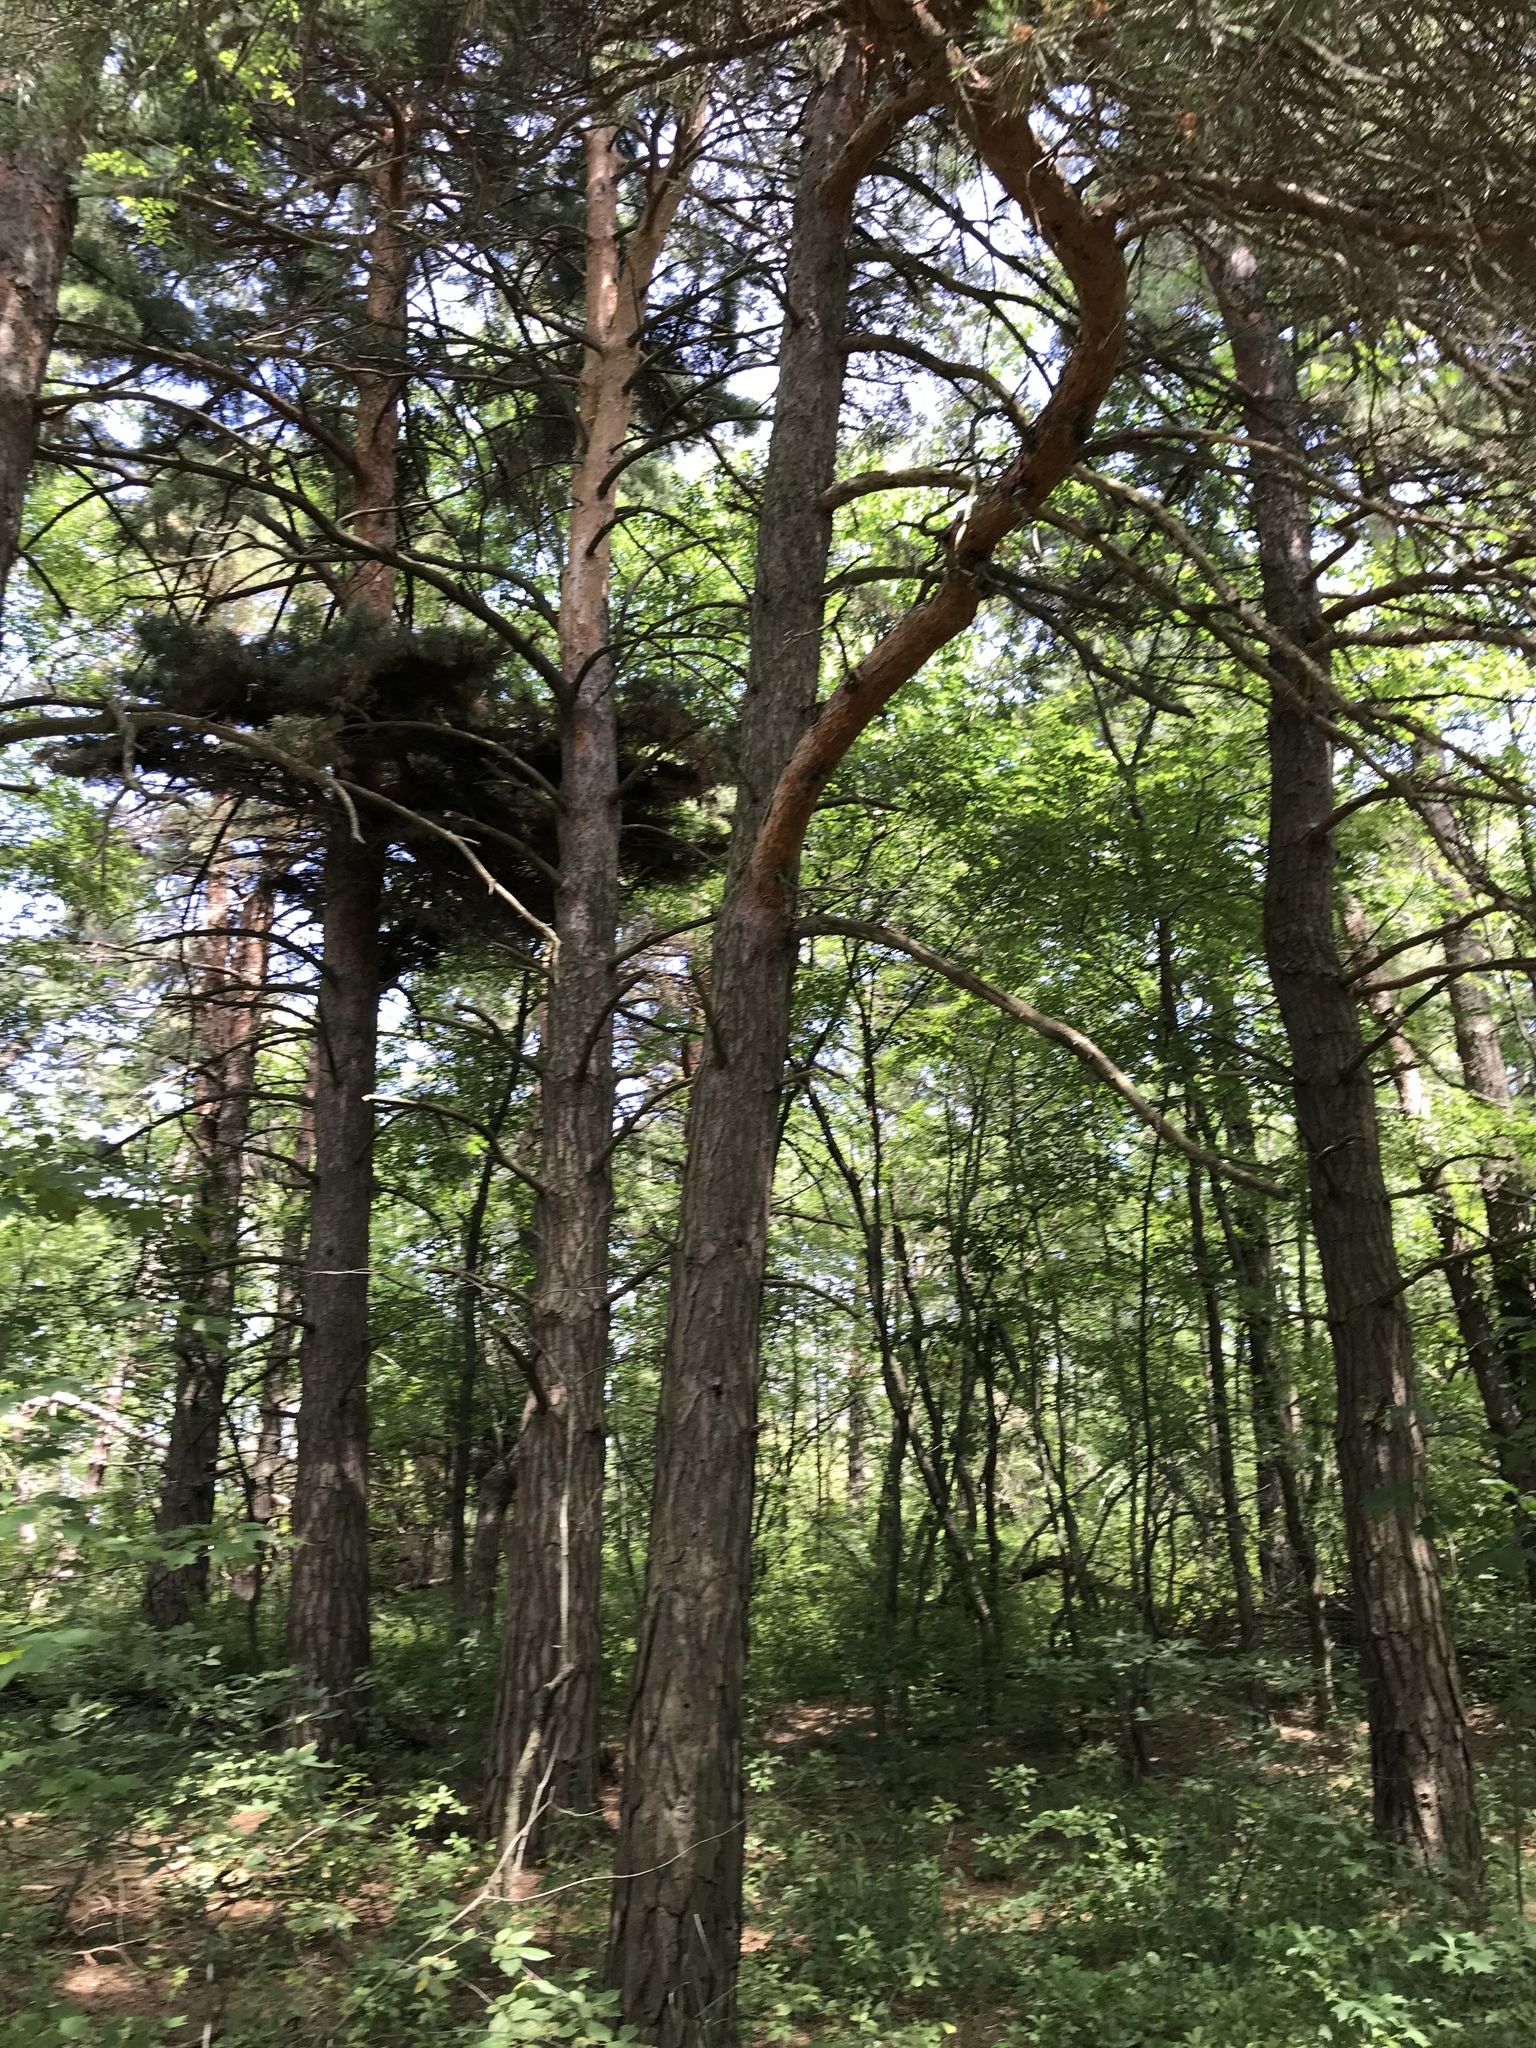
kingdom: Plantae
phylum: Tracheophyta
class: Pinopsida
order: Pinales
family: Pinaceae
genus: Pinus
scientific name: Pinus sylvestris
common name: Scots pine
